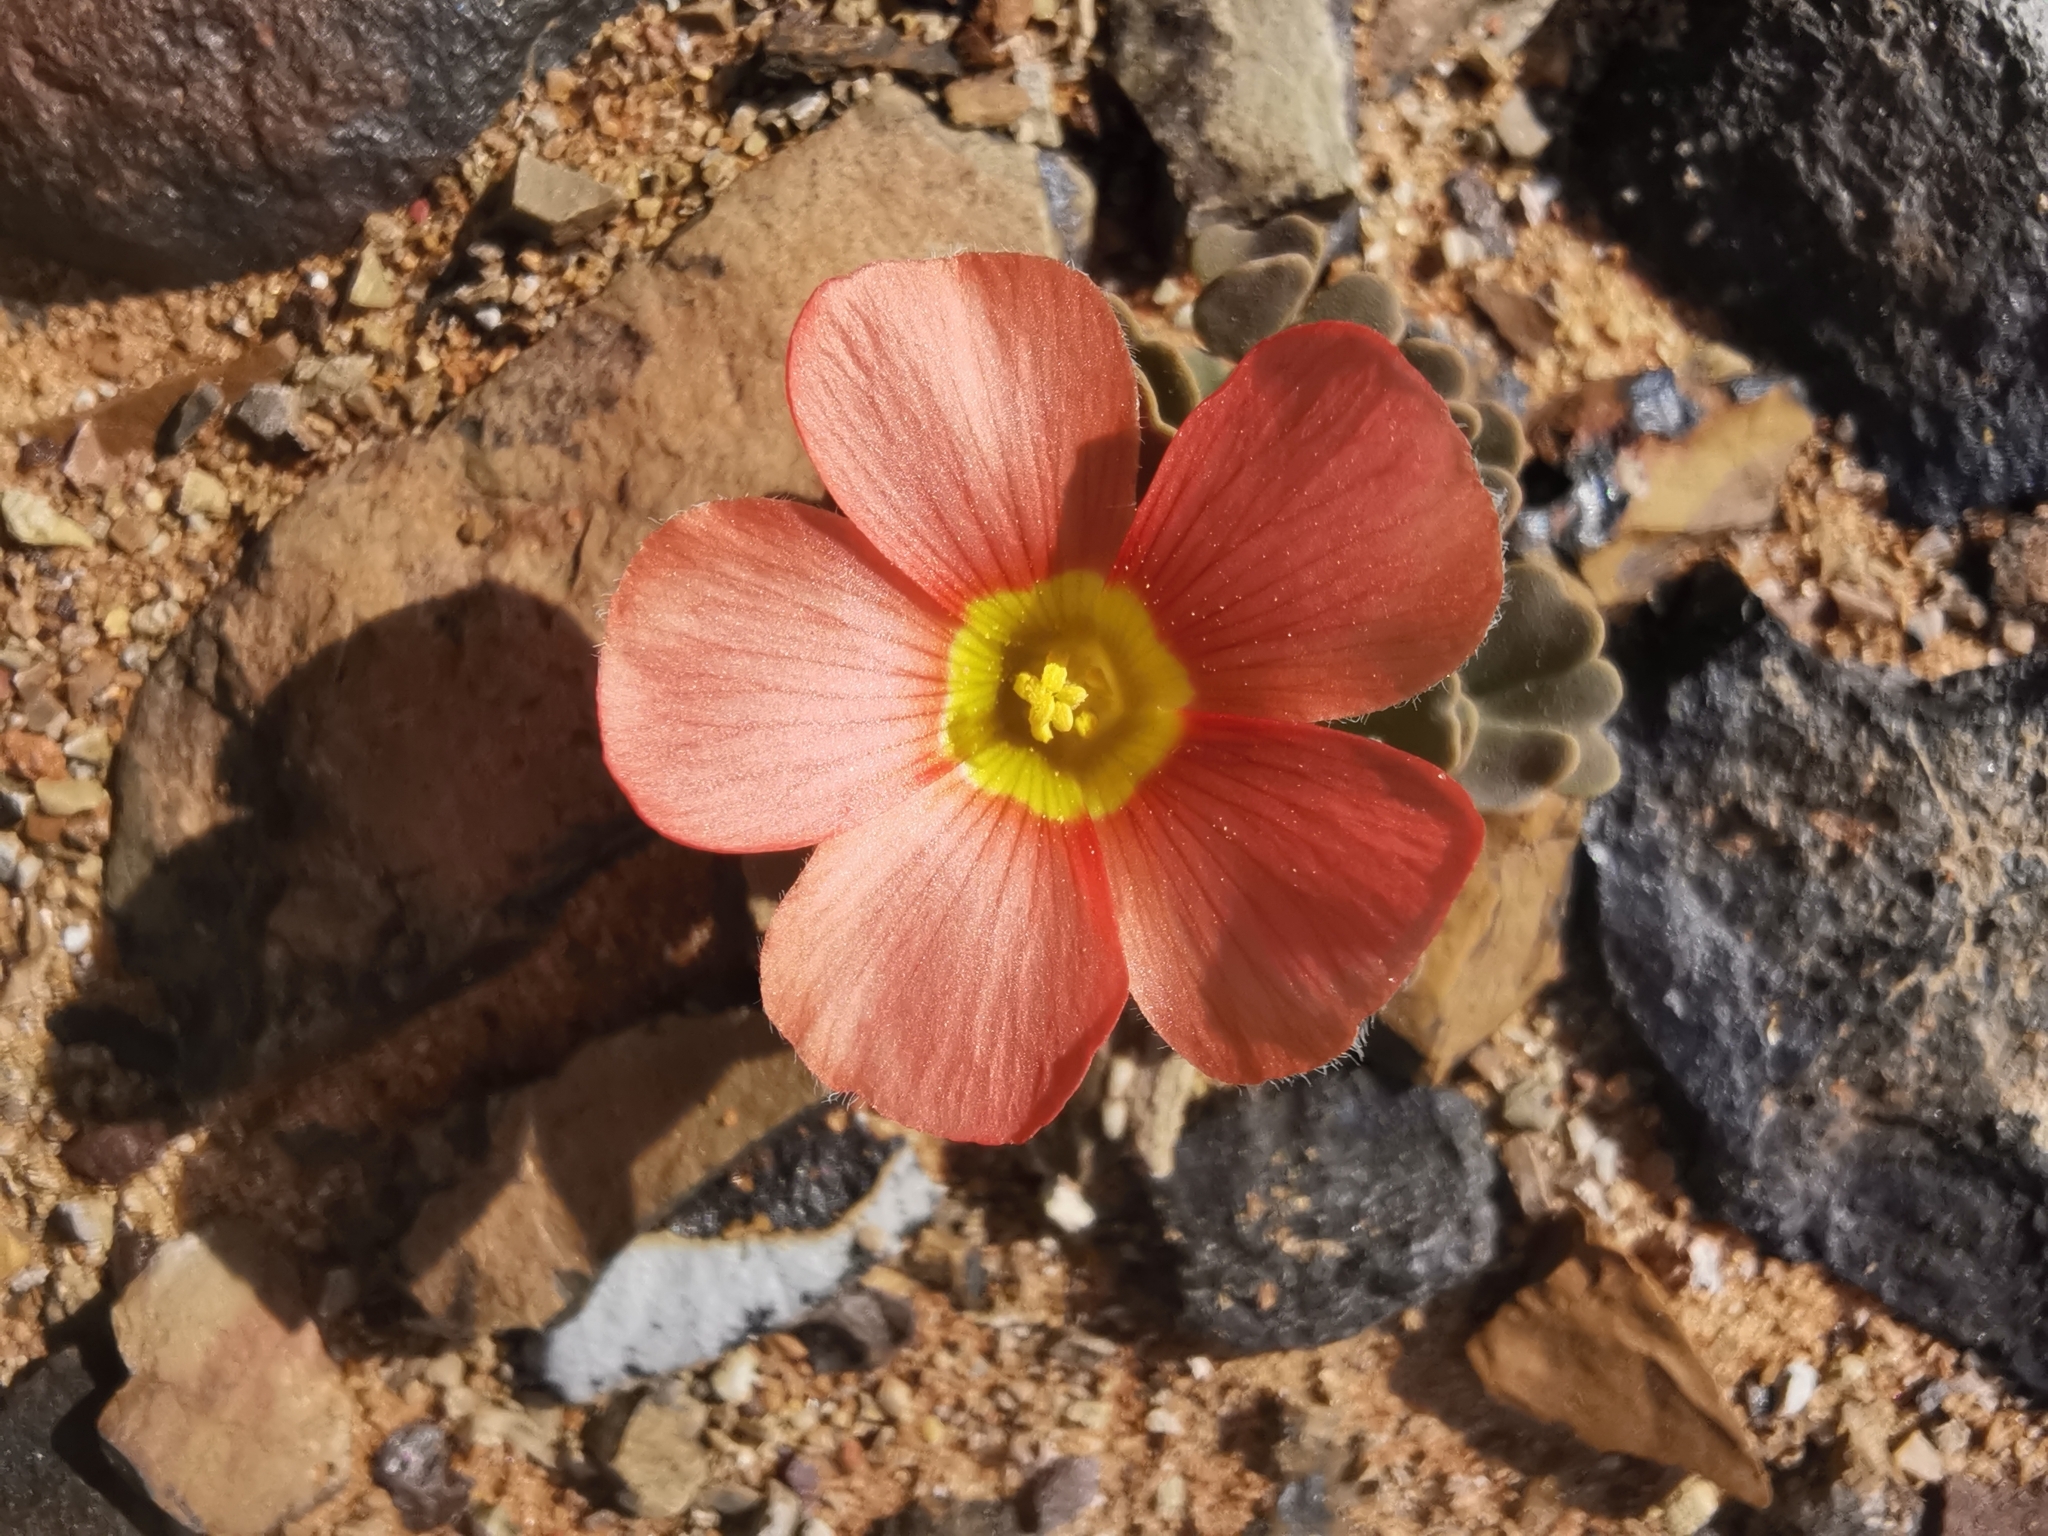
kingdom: Plantae
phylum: Tracheophyta
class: Magnoliopsida
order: Oxalidales
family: Oxalidaceae
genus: Oxalis
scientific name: Oxalis obtusa
